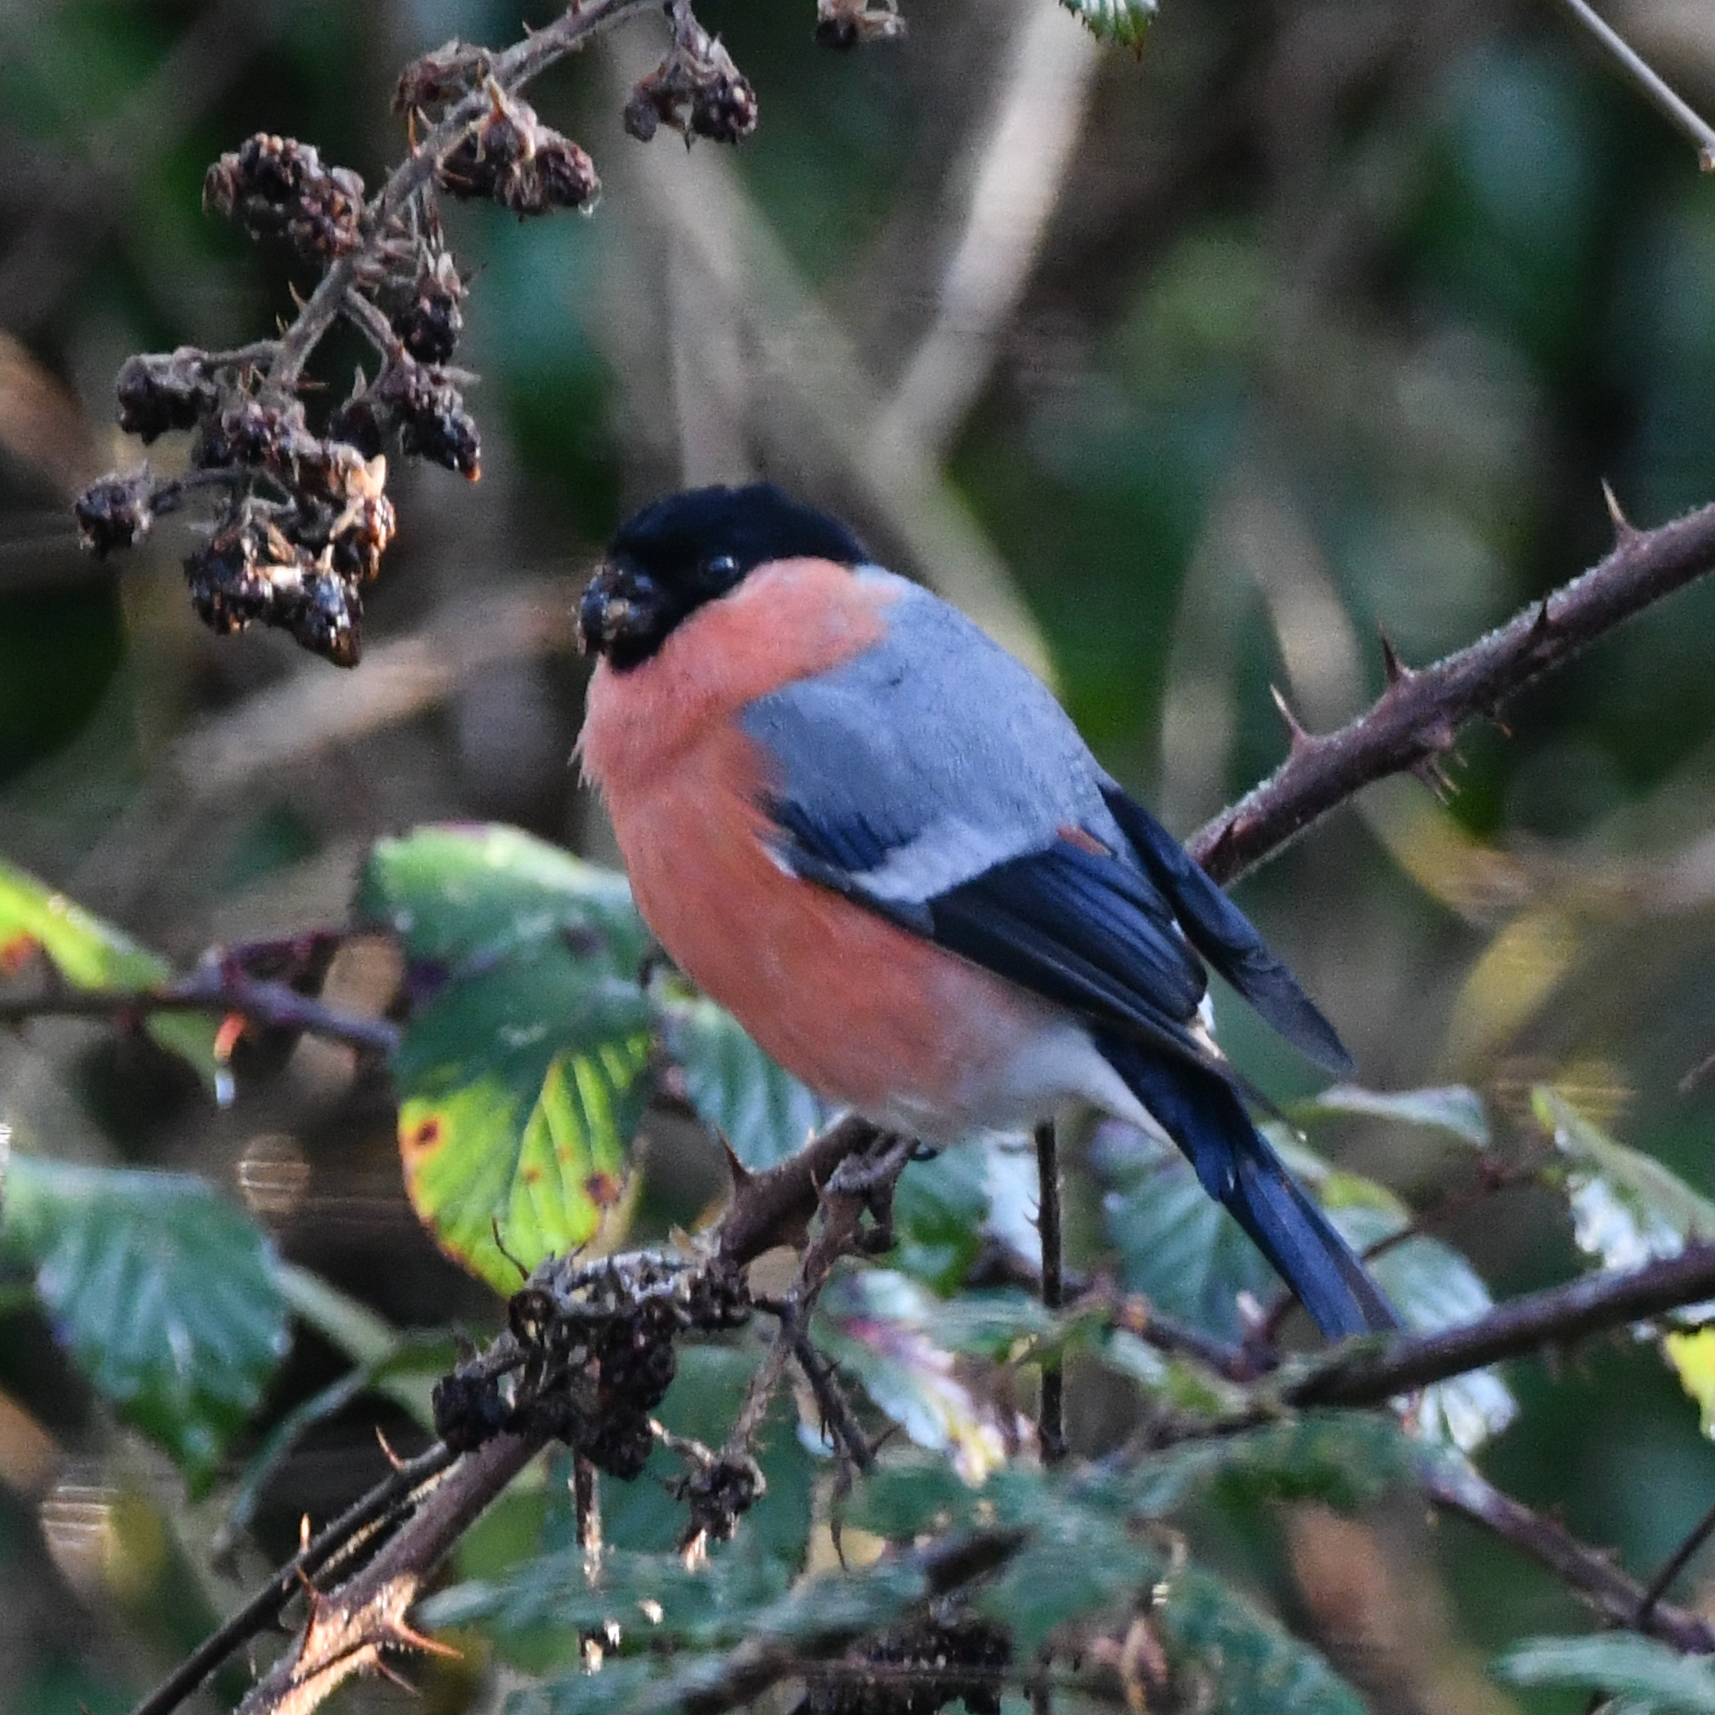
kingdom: Animalia
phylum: Chordata
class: Aves
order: Passeriformes
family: Fringillidae
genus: Pyrrhula
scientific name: Pyrrhula pyrrhula
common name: Eurasian bullfinch
